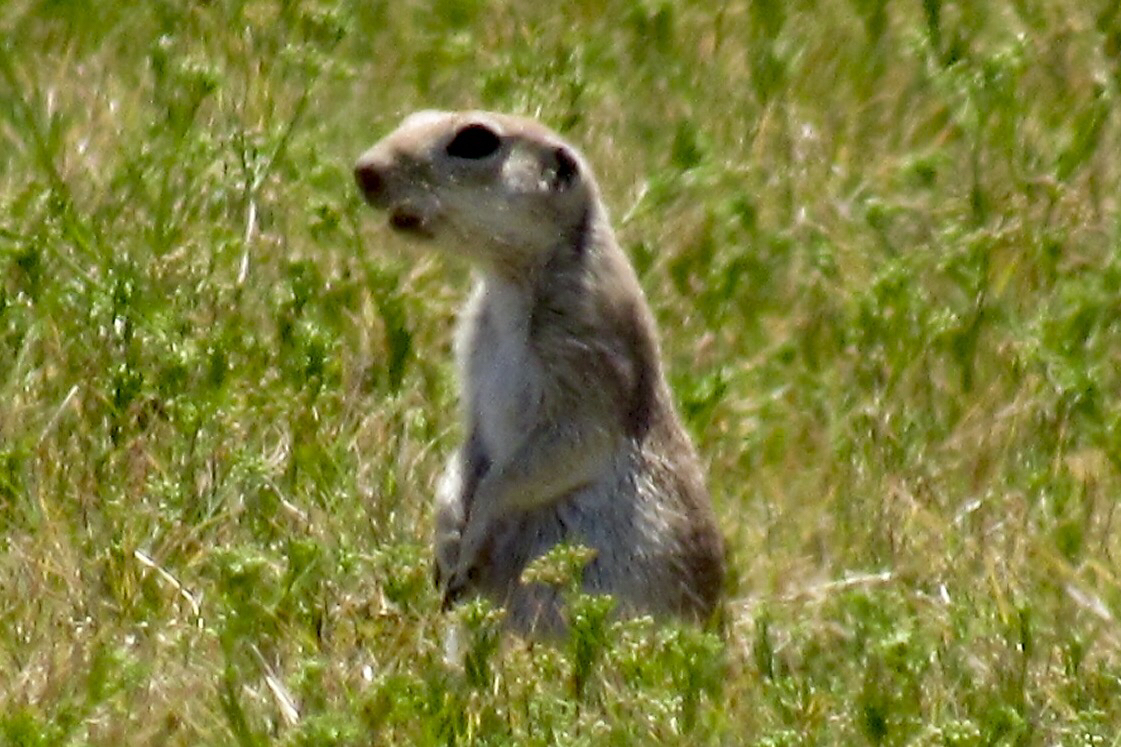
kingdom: Animalia
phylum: Chordata
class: Mammalia
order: Rodentia
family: Sciuridae
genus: Xerospermophilus
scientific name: Xerospermophilus tereticaudus
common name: Round-tailed ground squirrel
